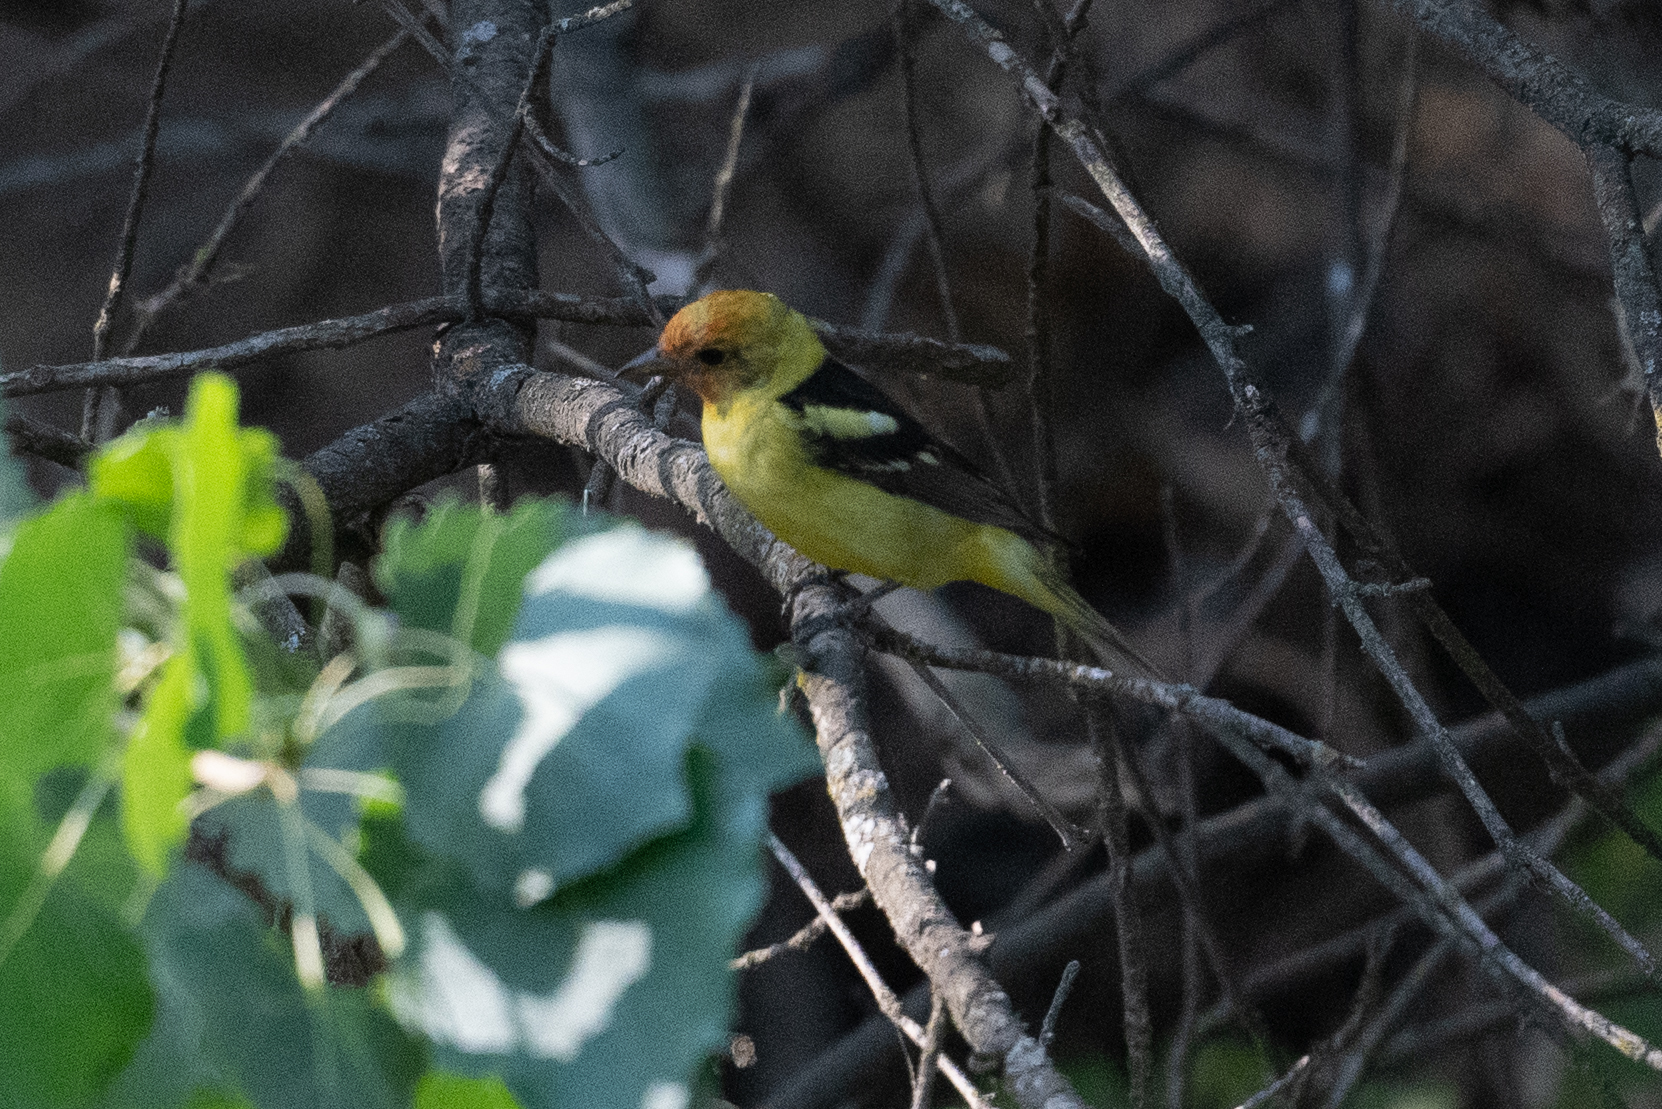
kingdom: Animalia
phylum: Chordata
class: Aves
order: Passeriformes
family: Cardinalidae
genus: Piranga
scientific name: Piranga ludoviciana
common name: Western tanager
